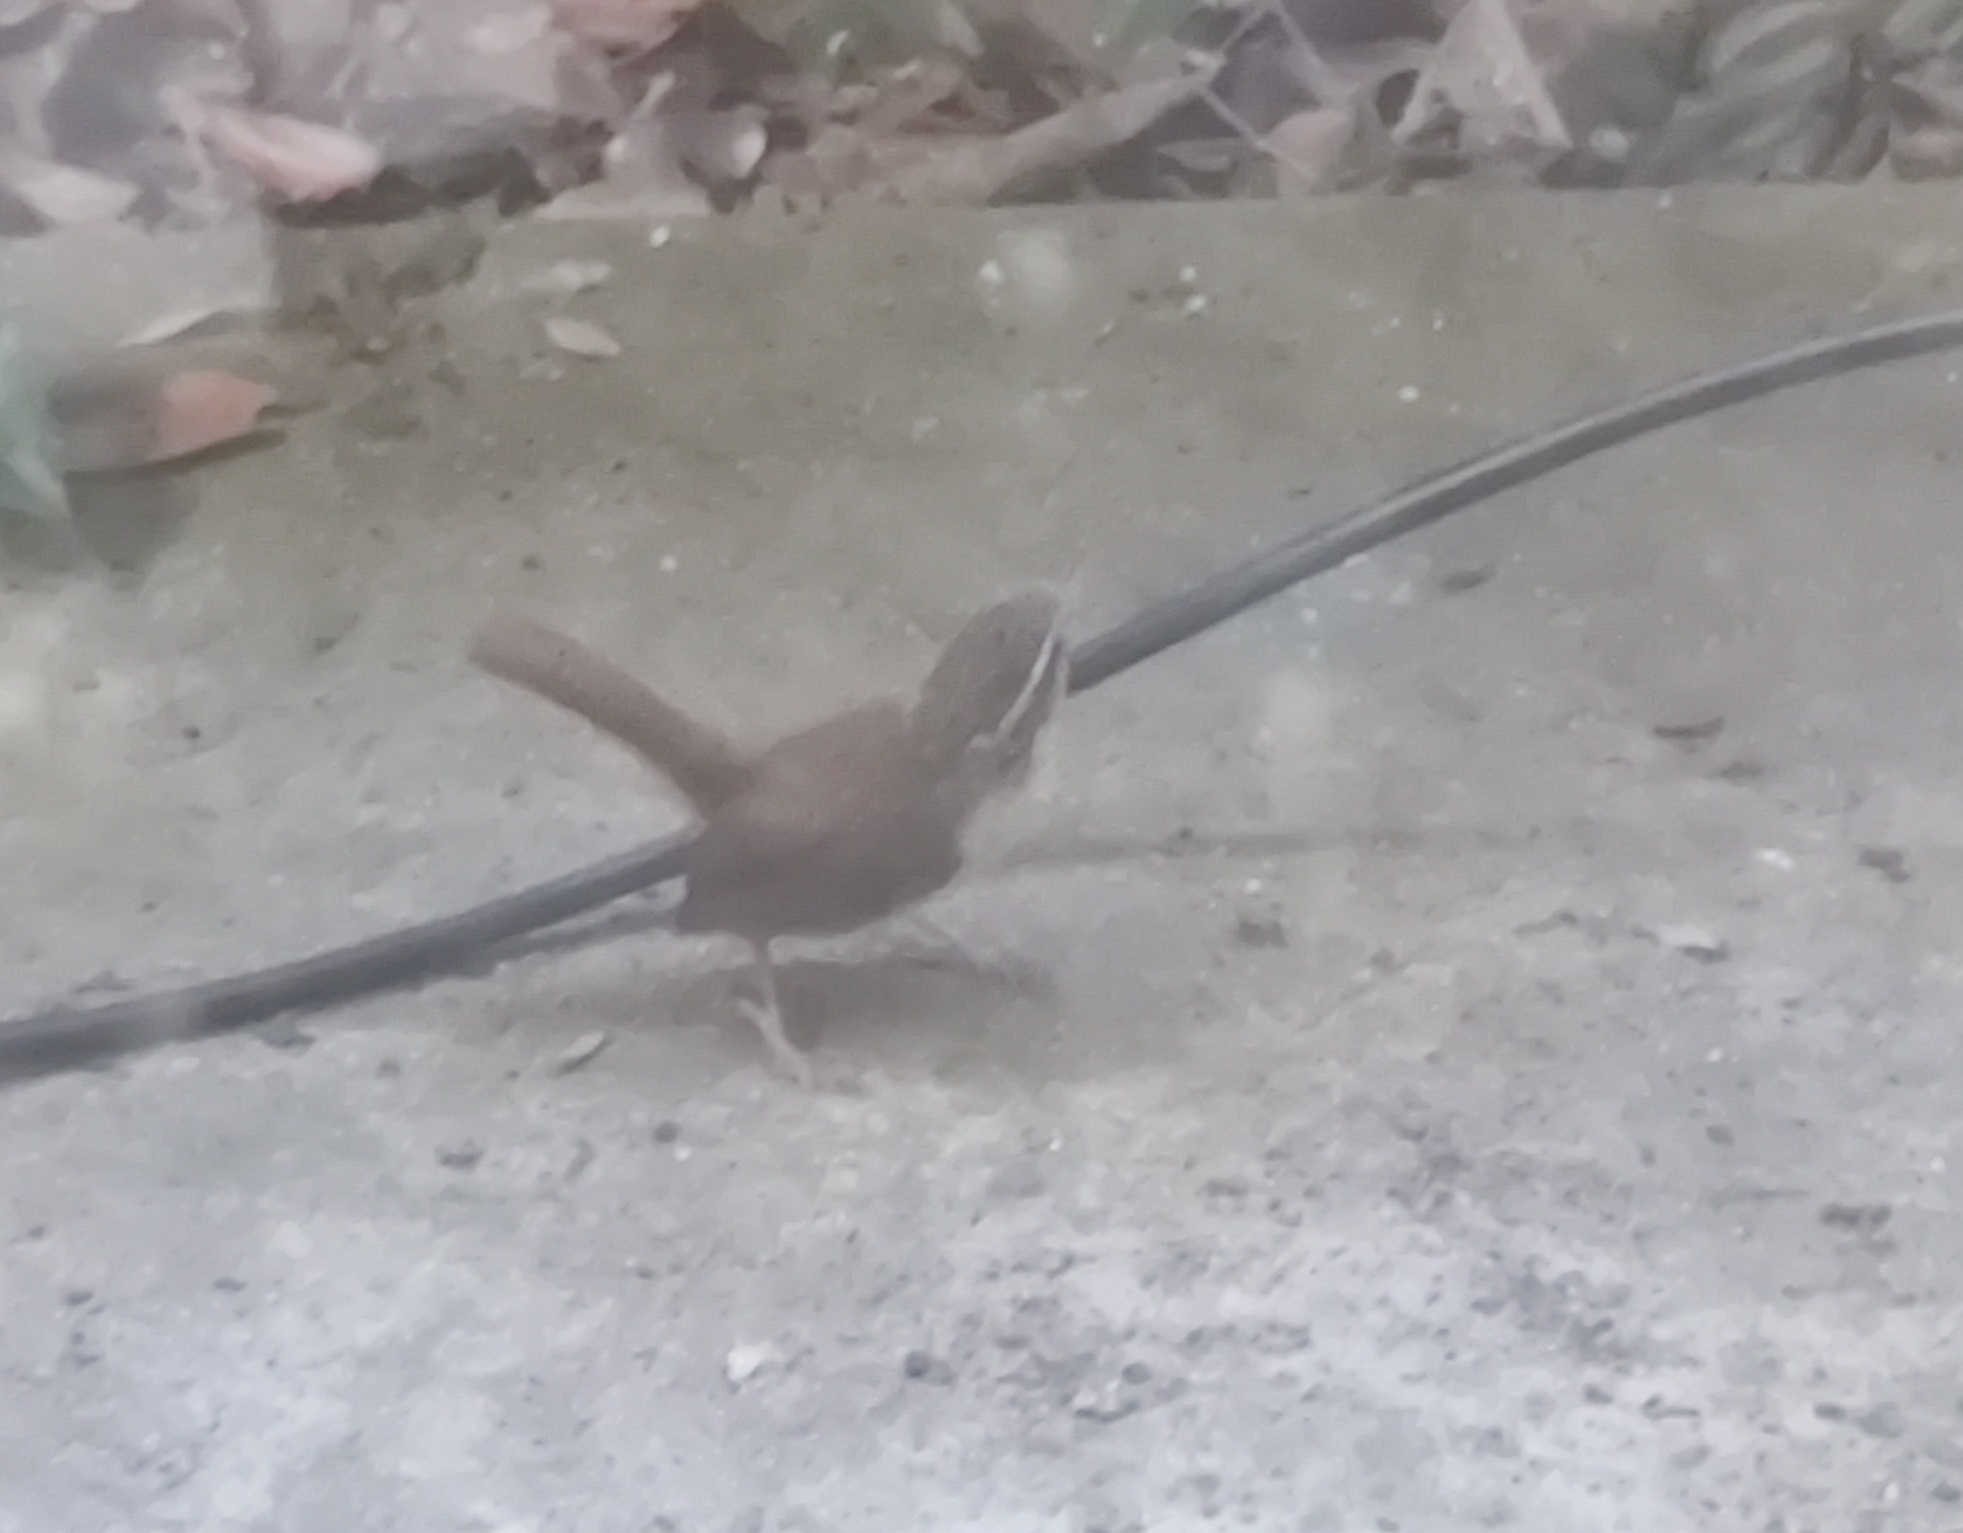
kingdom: Animalia
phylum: Chordata
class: Aves
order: Passeriformes
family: Troglodytidae
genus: Thryothorus
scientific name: Thryothorus ludovicianus
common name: Carolina wren
